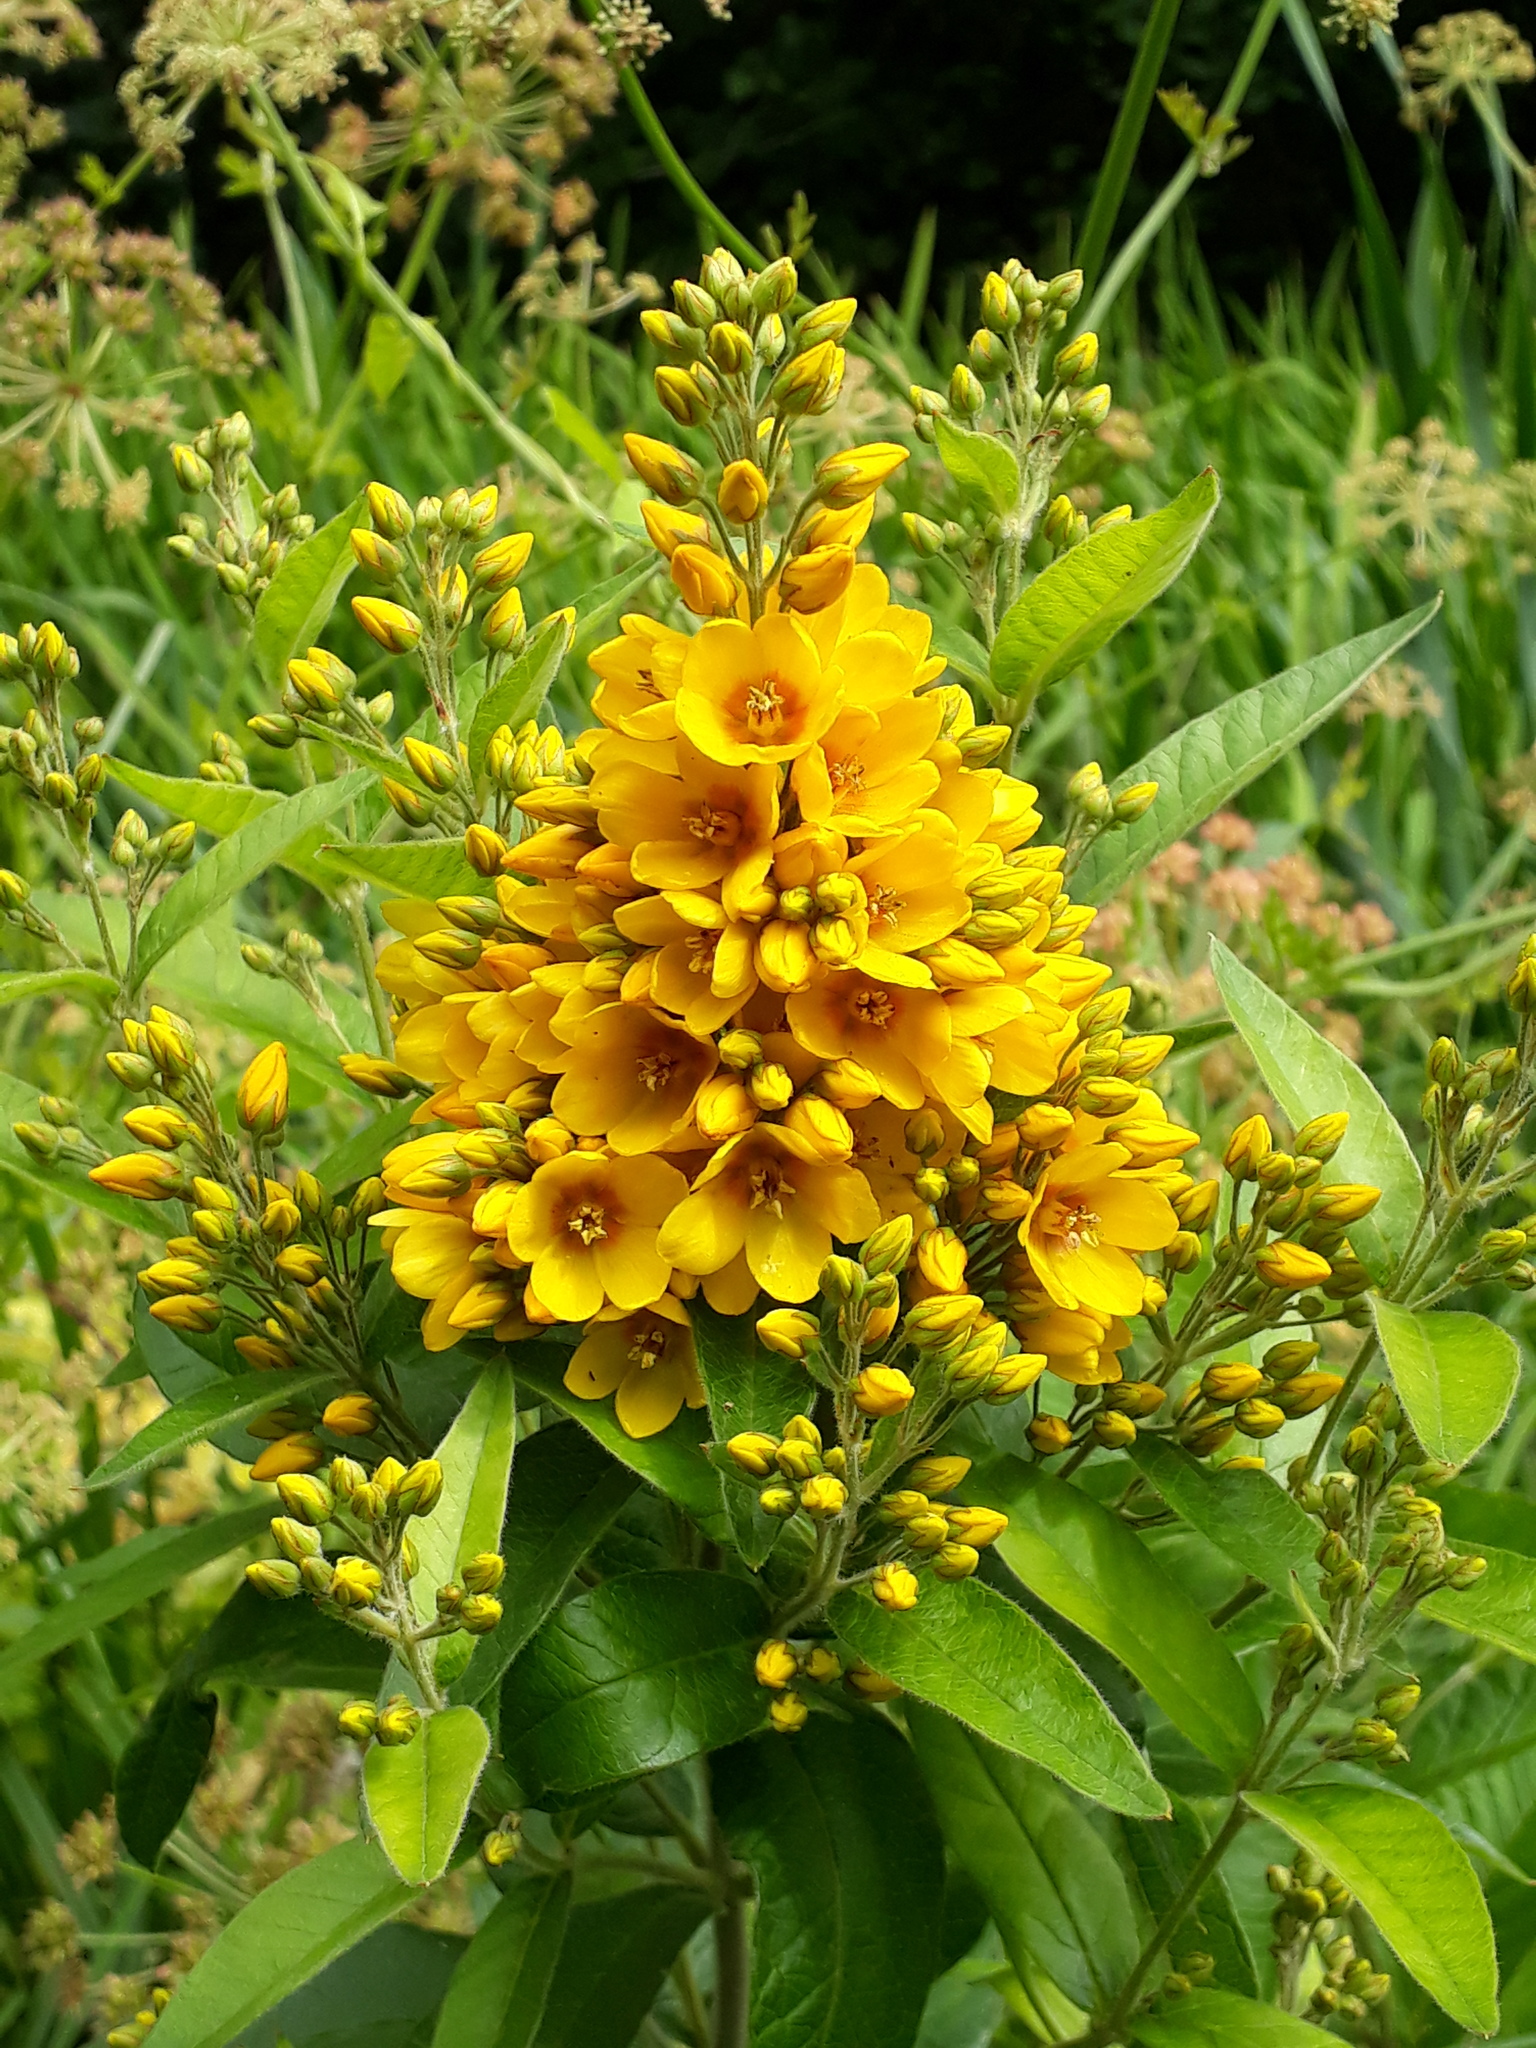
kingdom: Plantae
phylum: Tracheophyta
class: Magnoliopsida
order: Ericales
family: Primulaceae
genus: Lysimachia
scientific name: Lysimachia vulgaris
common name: Yellow loosestrife
